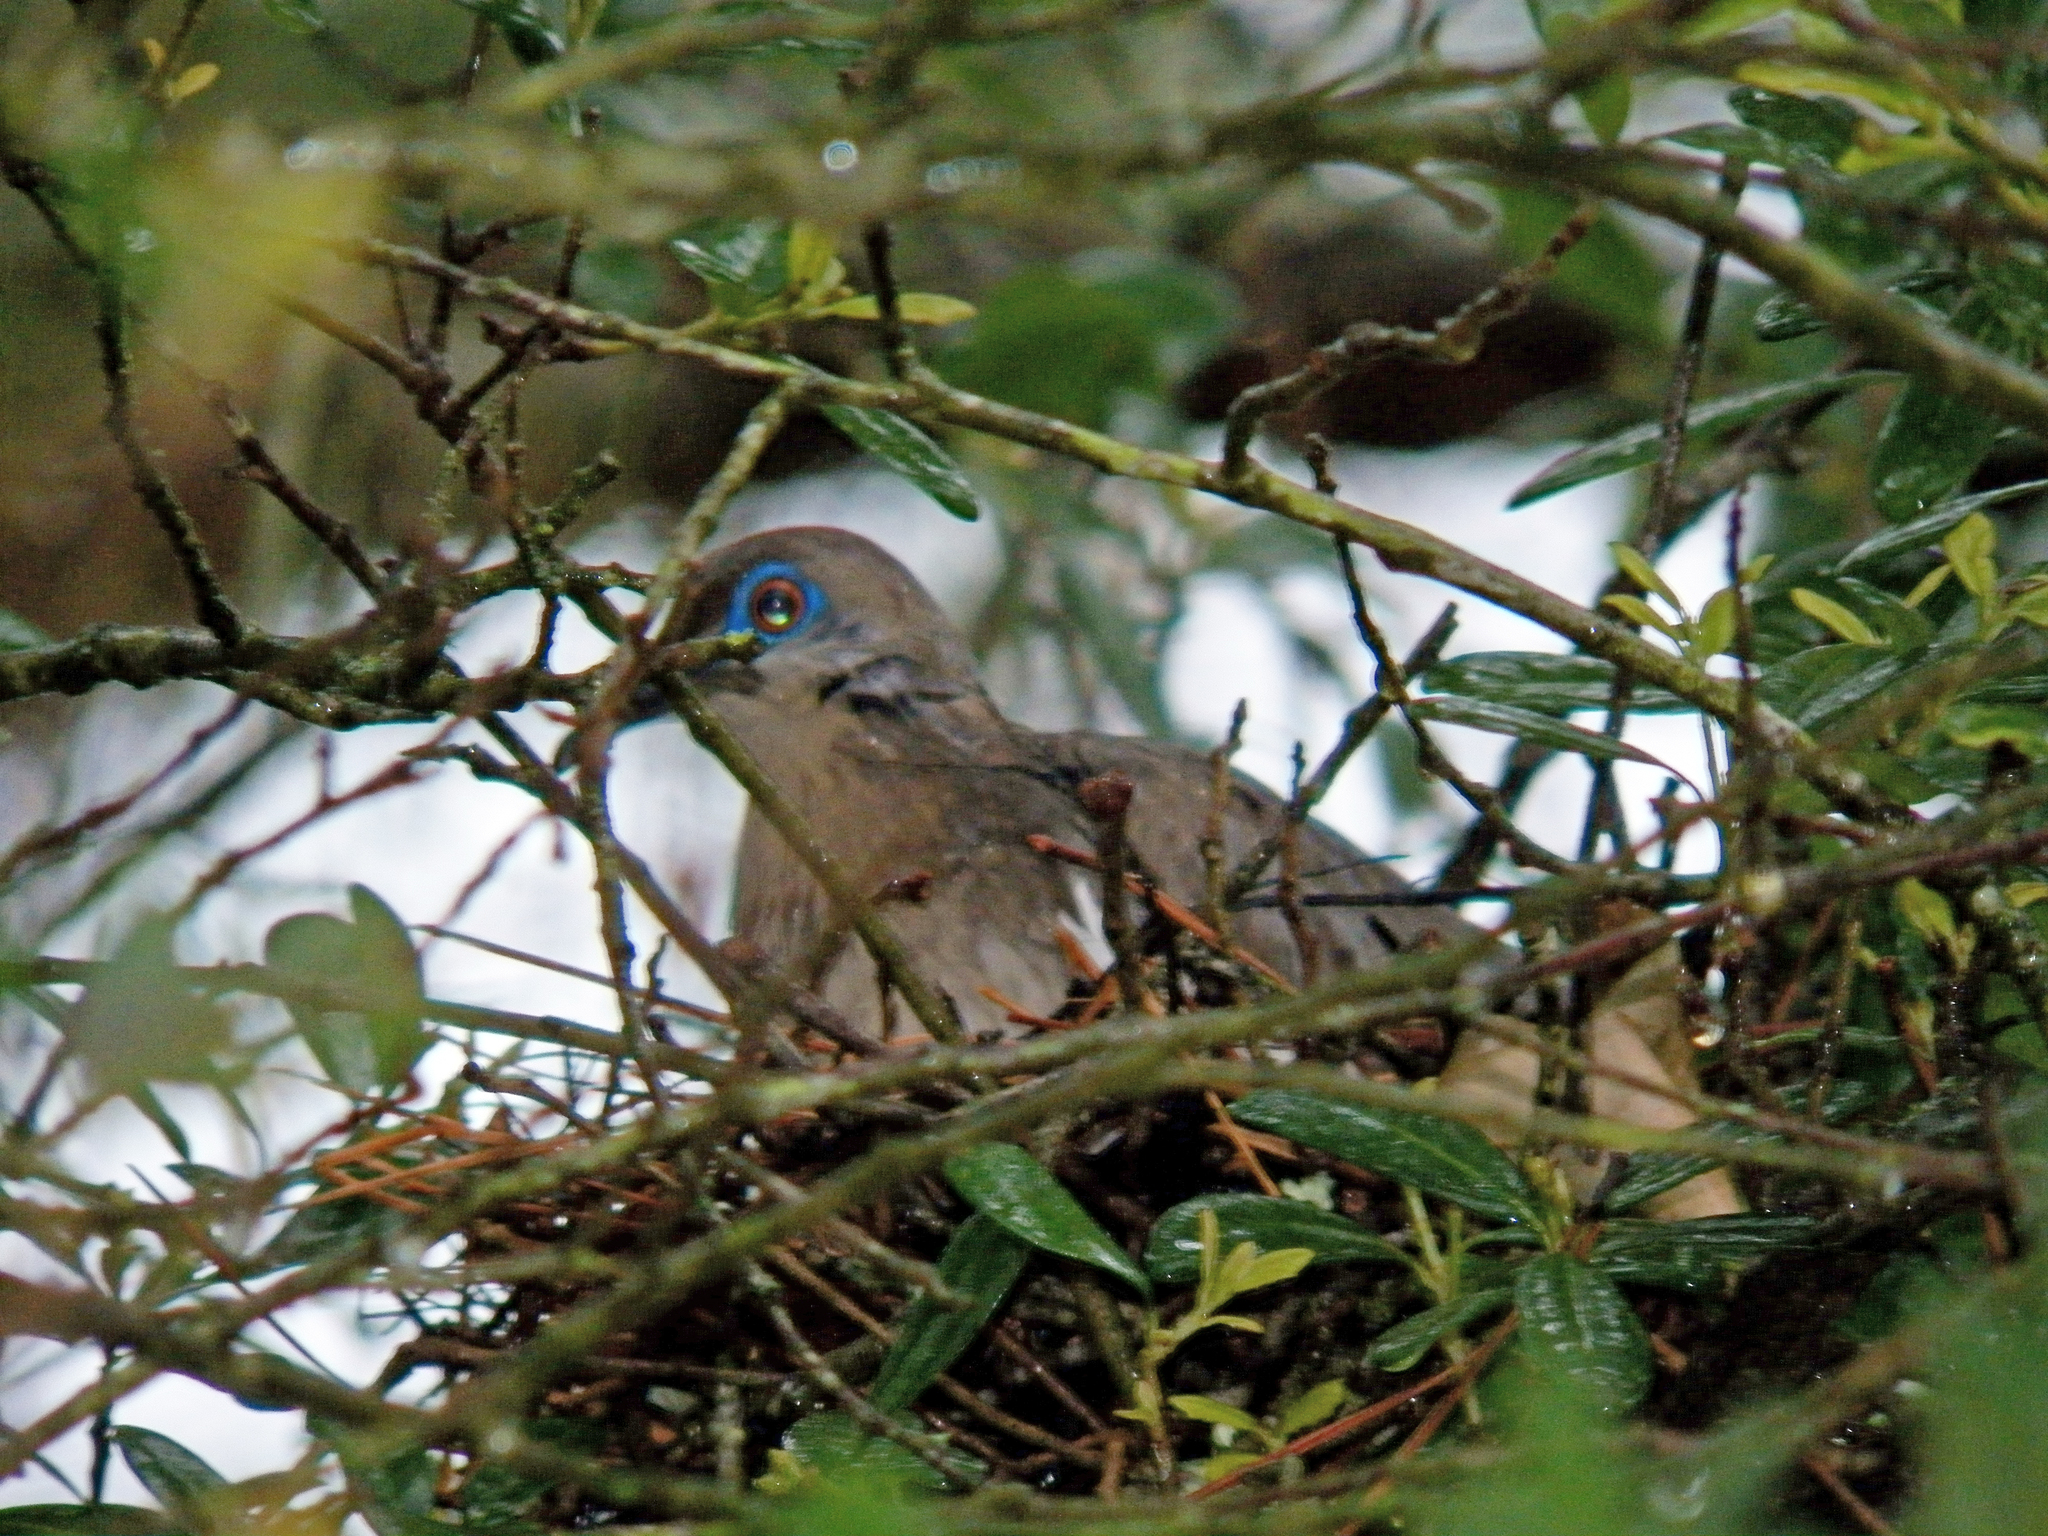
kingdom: Animalia
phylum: Chordata
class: Aves
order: Columbiformes
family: Columbidae
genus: Zenaida
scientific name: Zenaida asiatica
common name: White-winged dove
